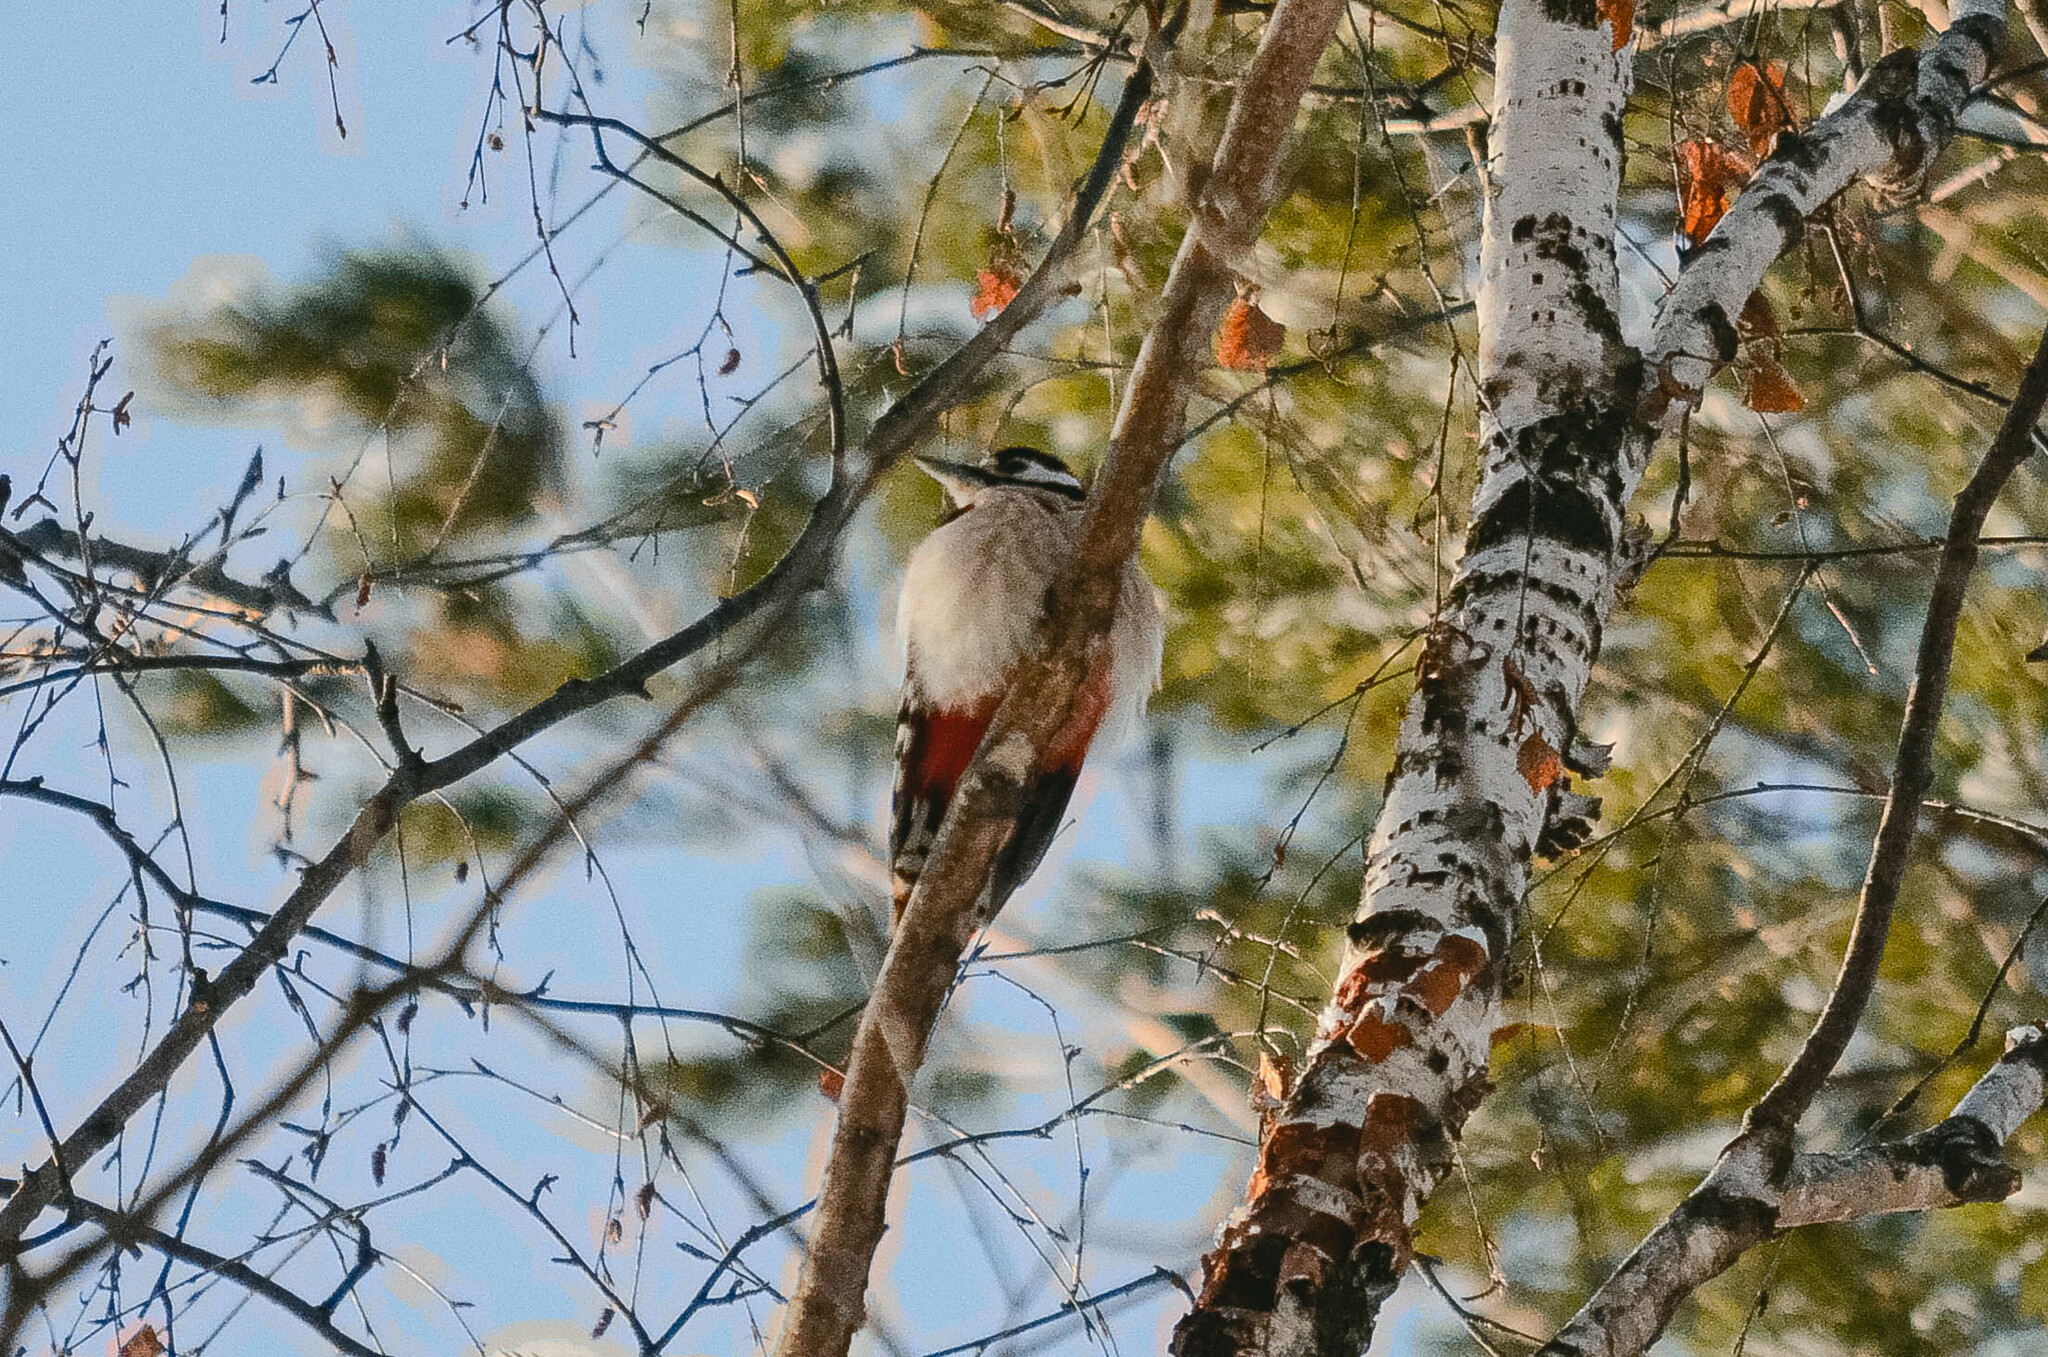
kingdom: Animalia
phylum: Chordata
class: Aves
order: Piciformes
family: Picidae
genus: Dendrocopos
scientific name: Dendrocopos major
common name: Great spotted woodpecker
